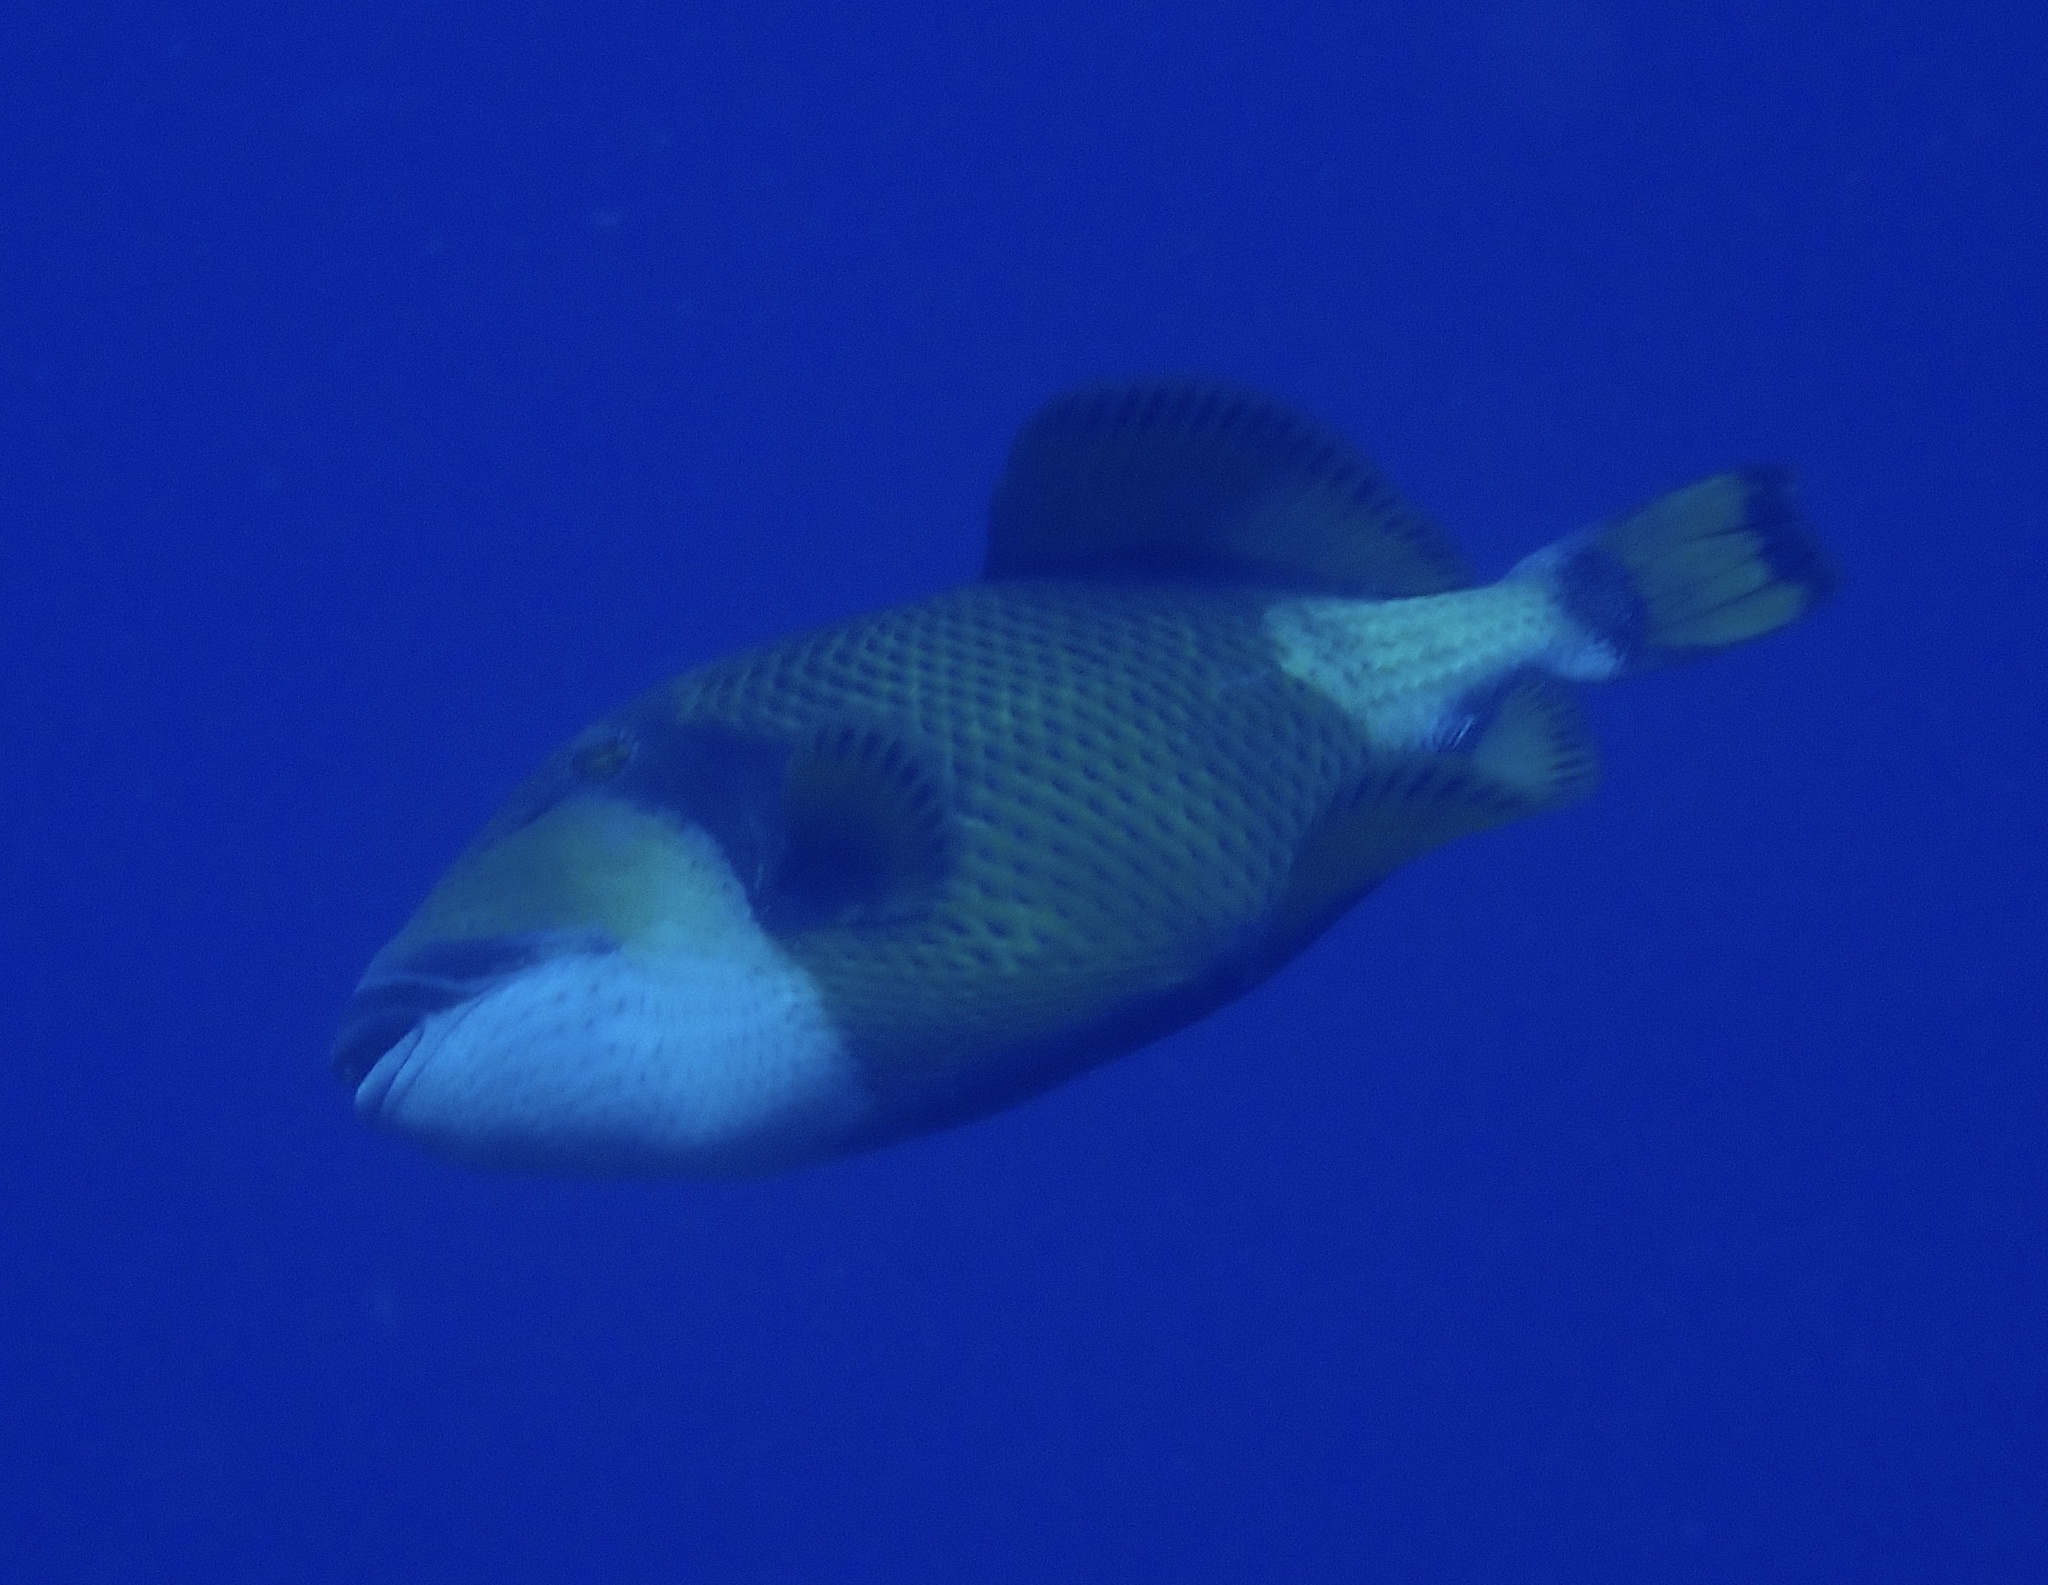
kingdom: Animalia
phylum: Chordata
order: Tetraodontiformes
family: Balistidae
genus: Balistoides
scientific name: Balistoides viridescens
